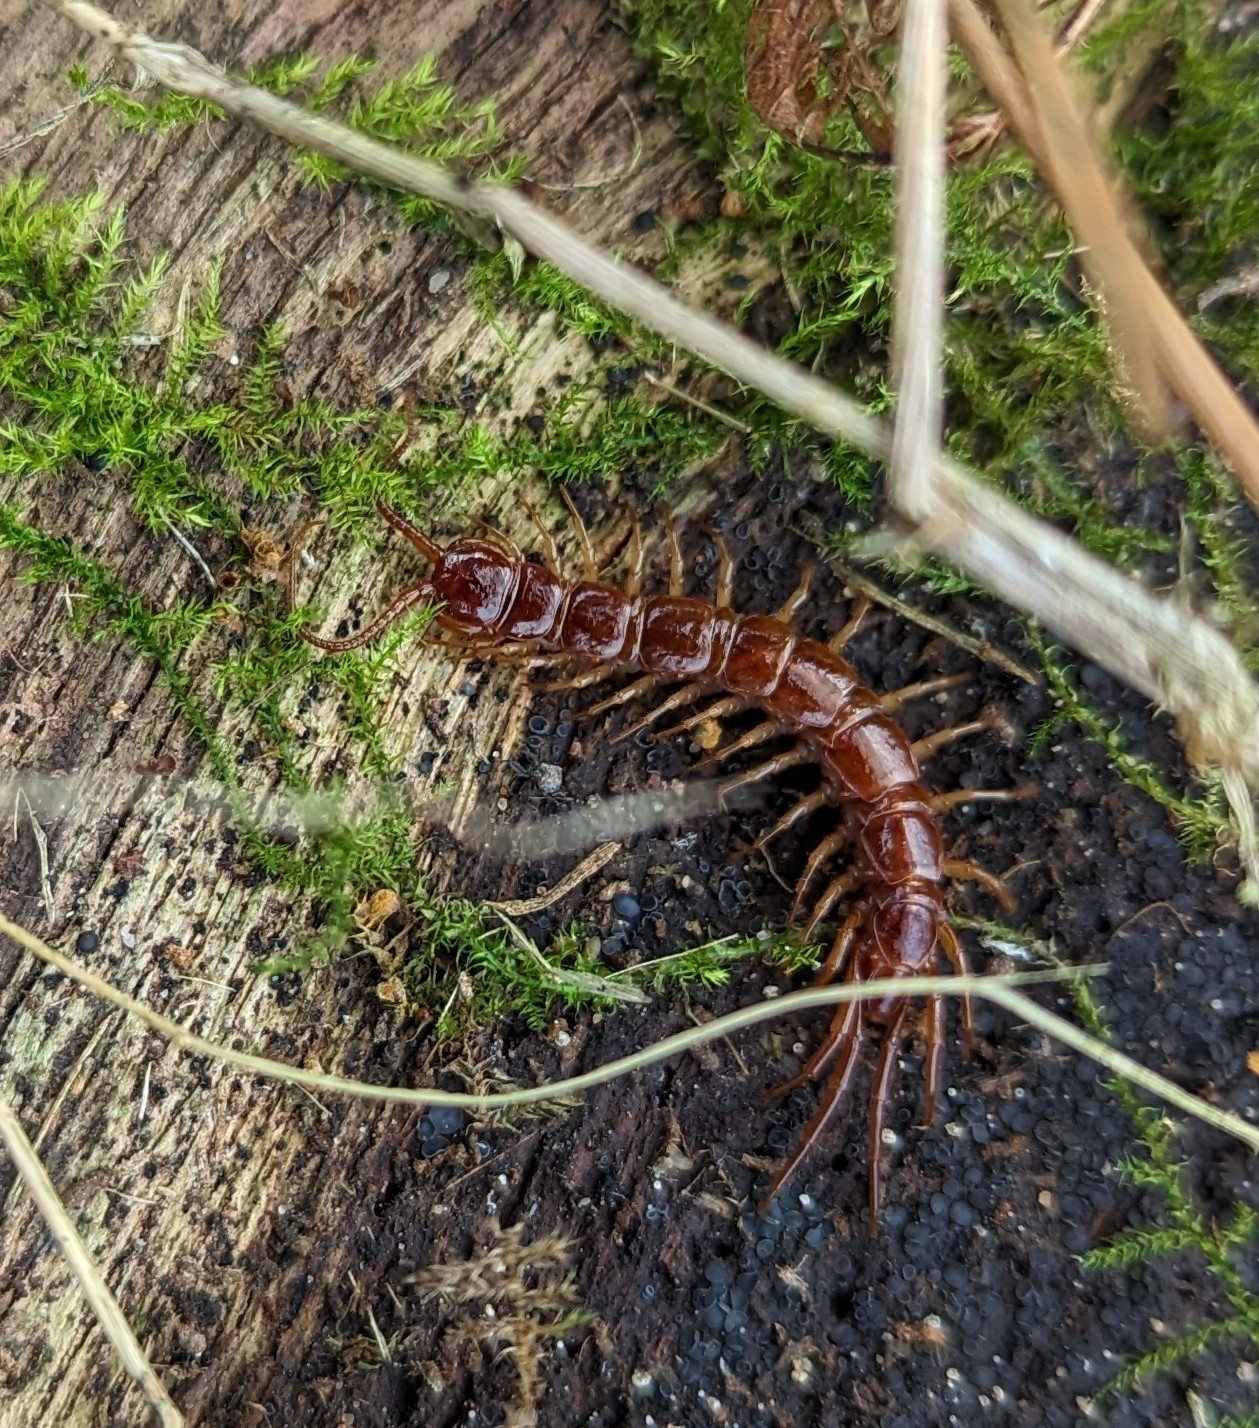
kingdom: Animalia
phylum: Arthropoda
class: Chilopoda
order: Lithobiomorpha
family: Lithobiidae
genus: Lithobius
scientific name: Lithobius forficatus
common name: Centipede
